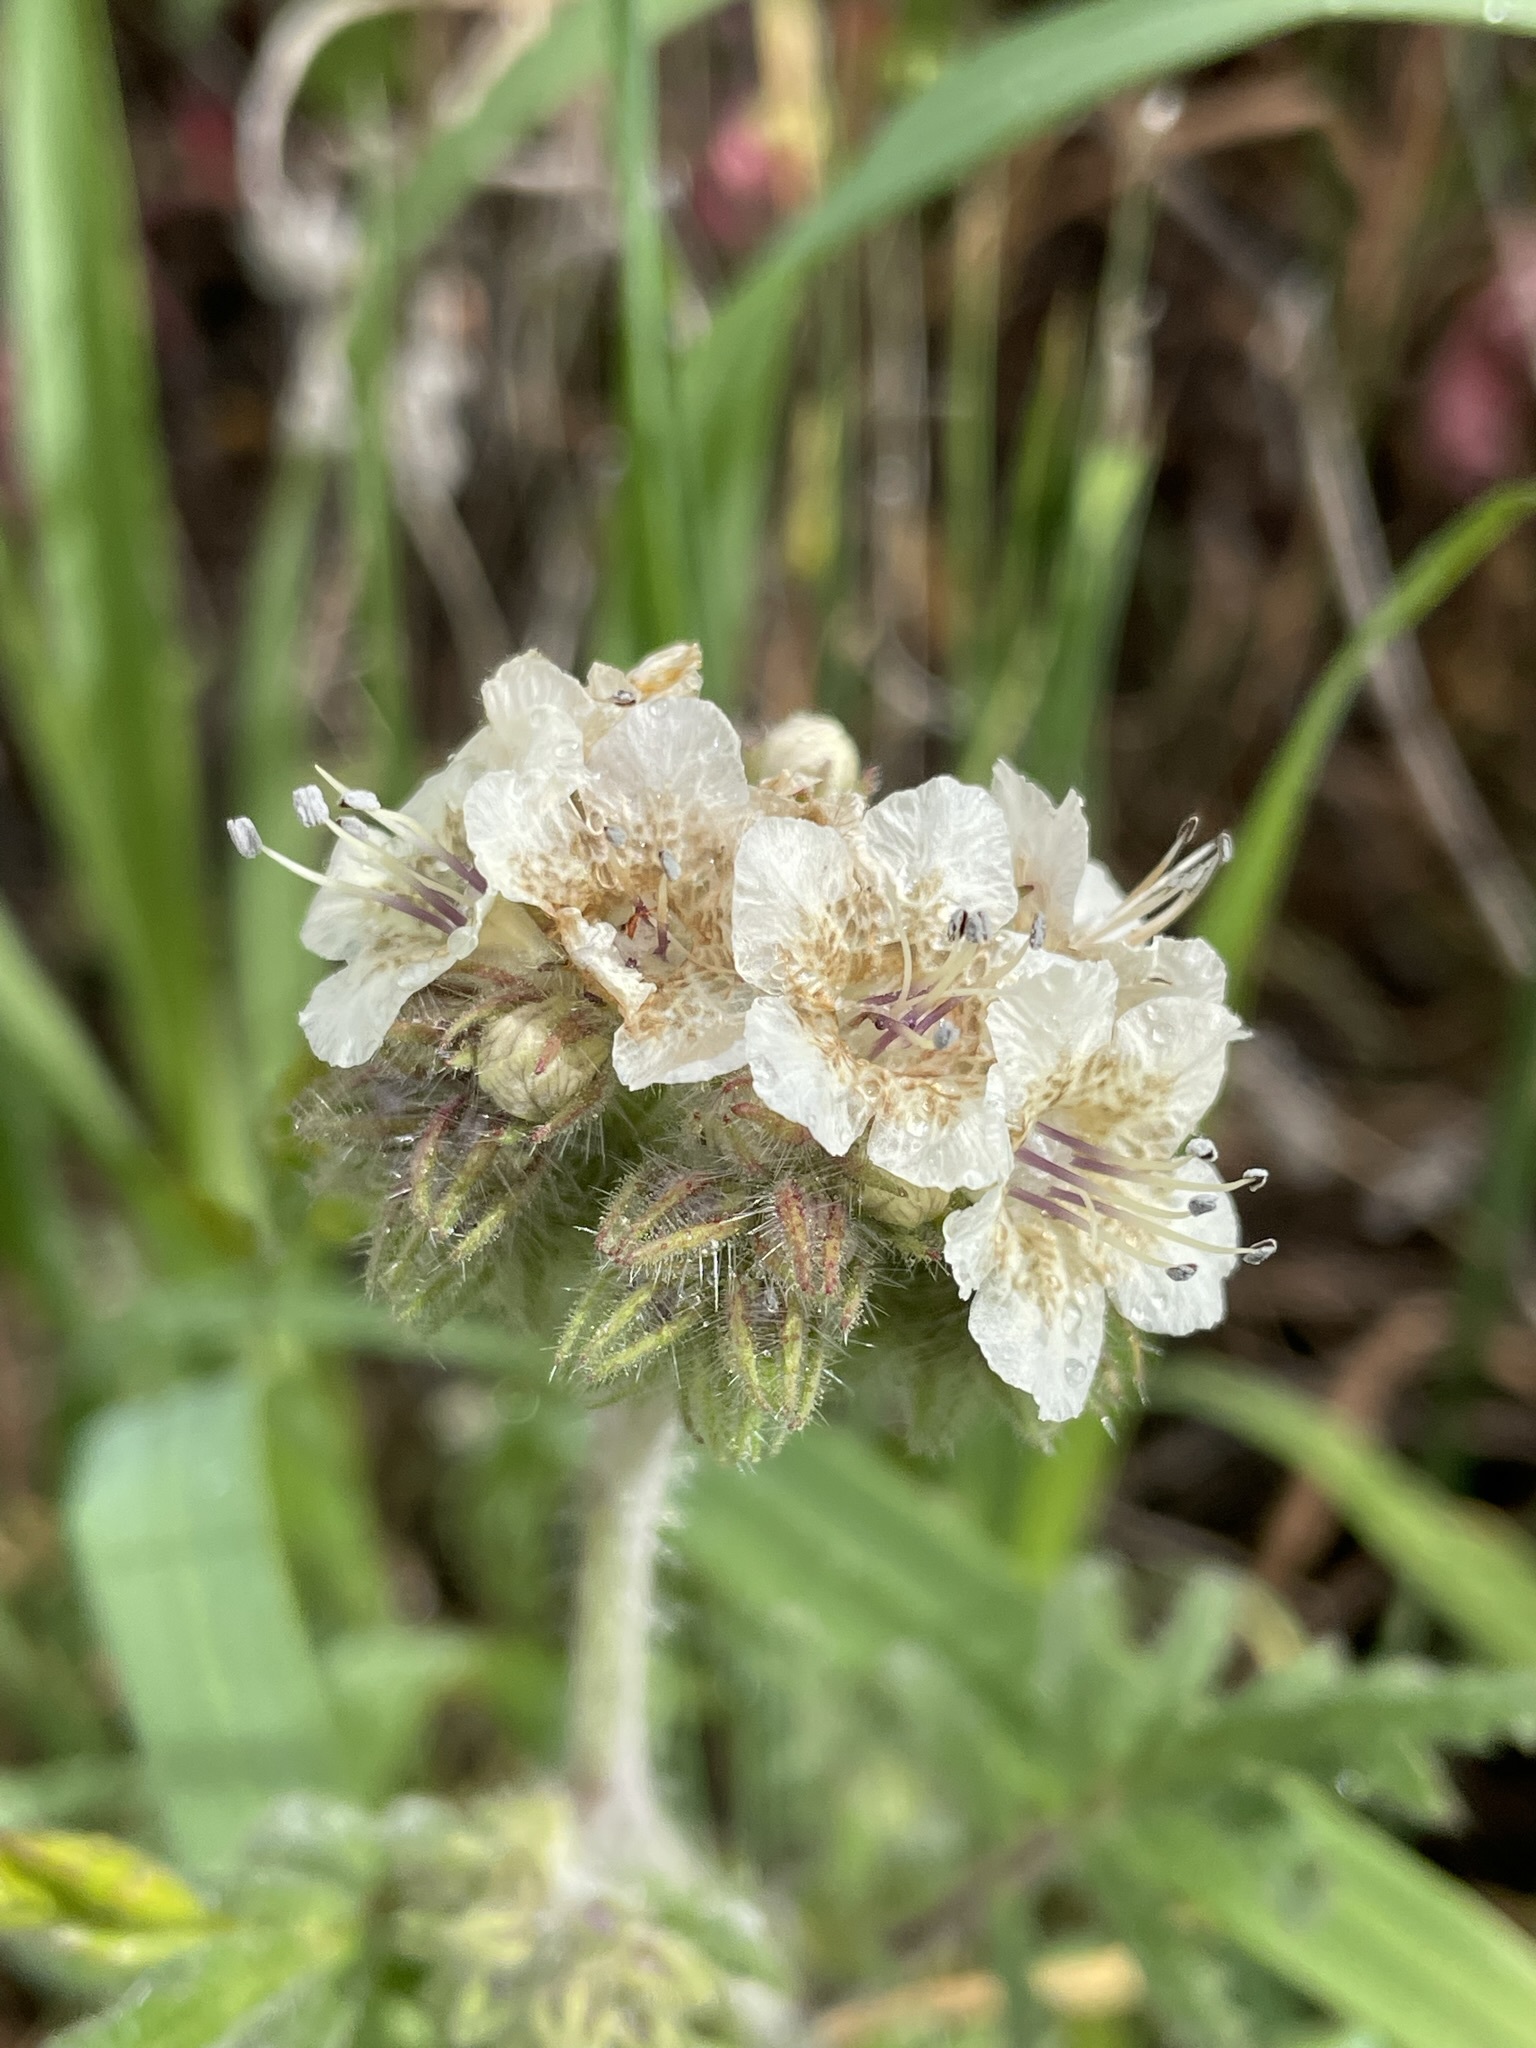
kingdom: Plantae
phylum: Tracheophyta
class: Magnoliopsida
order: Boraginales
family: Hydrophyllaceae
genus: Phacelia
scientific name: Phacelia cicutaria
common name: Caterpillar phacelia
